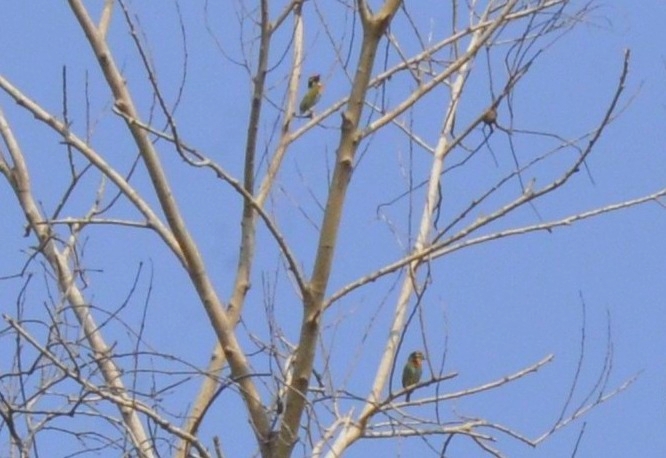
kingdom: Animalia
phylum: Chordata
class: Aves
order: Piciformes
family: Megalaimidae
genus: Psilopogon
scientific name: Psilopogon haemacephalus
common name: Coppersmith barbet
